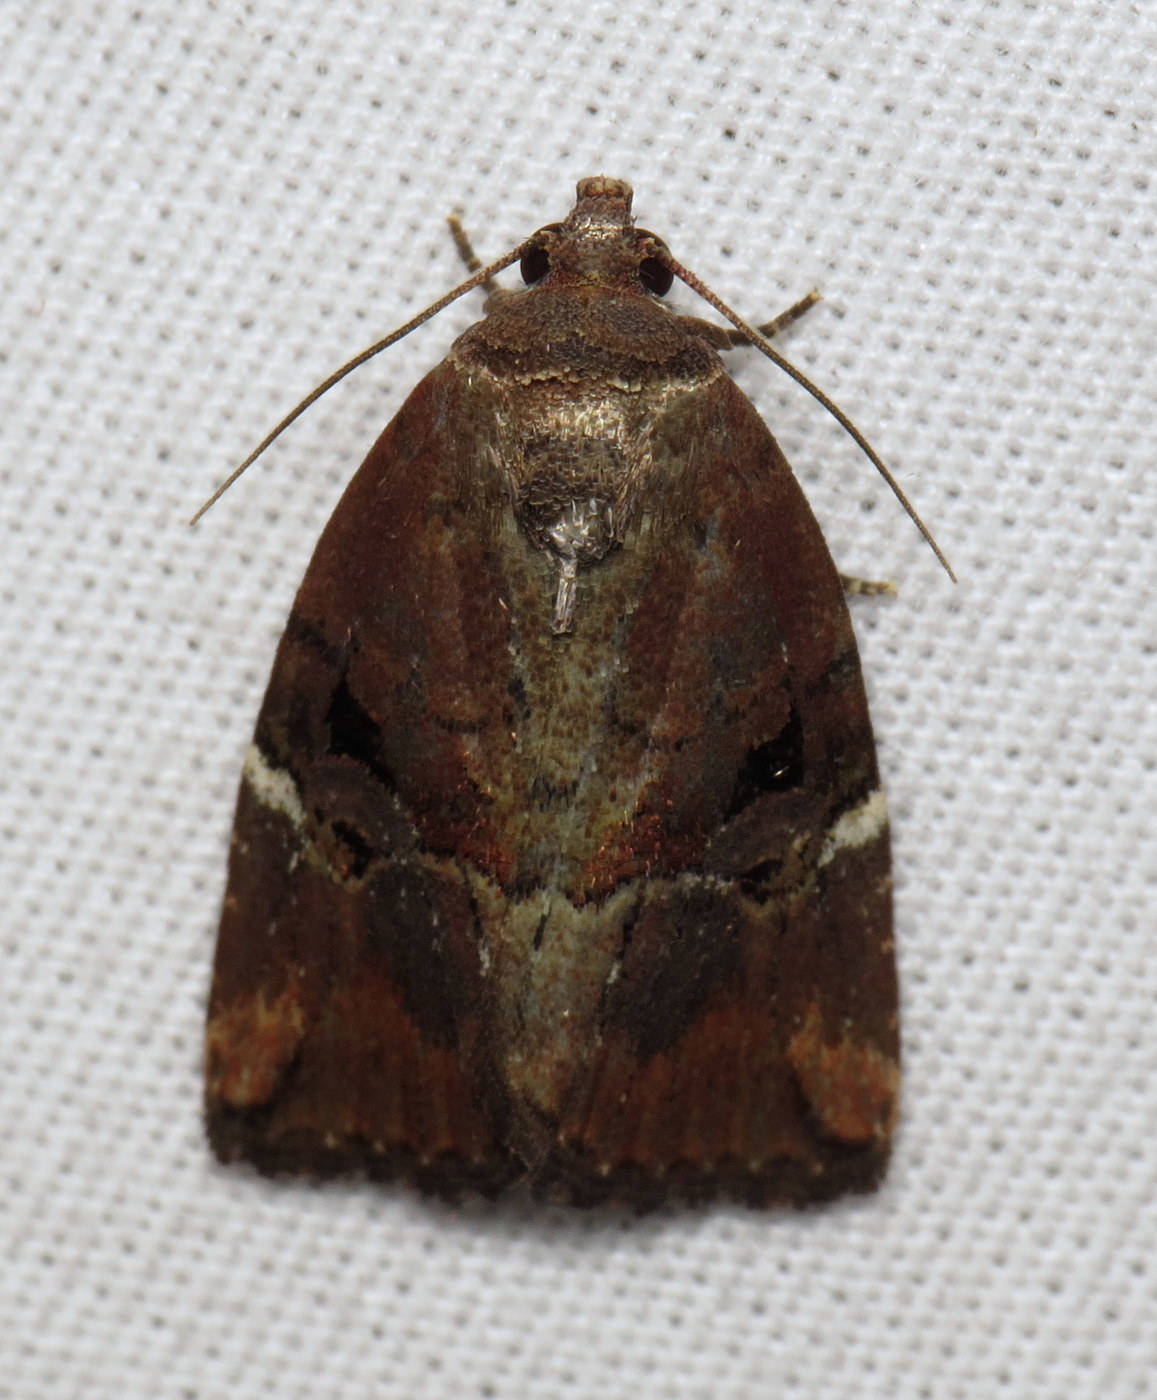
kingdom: Animalia
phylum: Arthropoda
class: Insecta
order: Lepidoptera
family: Noctuidae
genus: Elaphria
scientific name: Elaphria versicolor
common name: Fir harlequin
